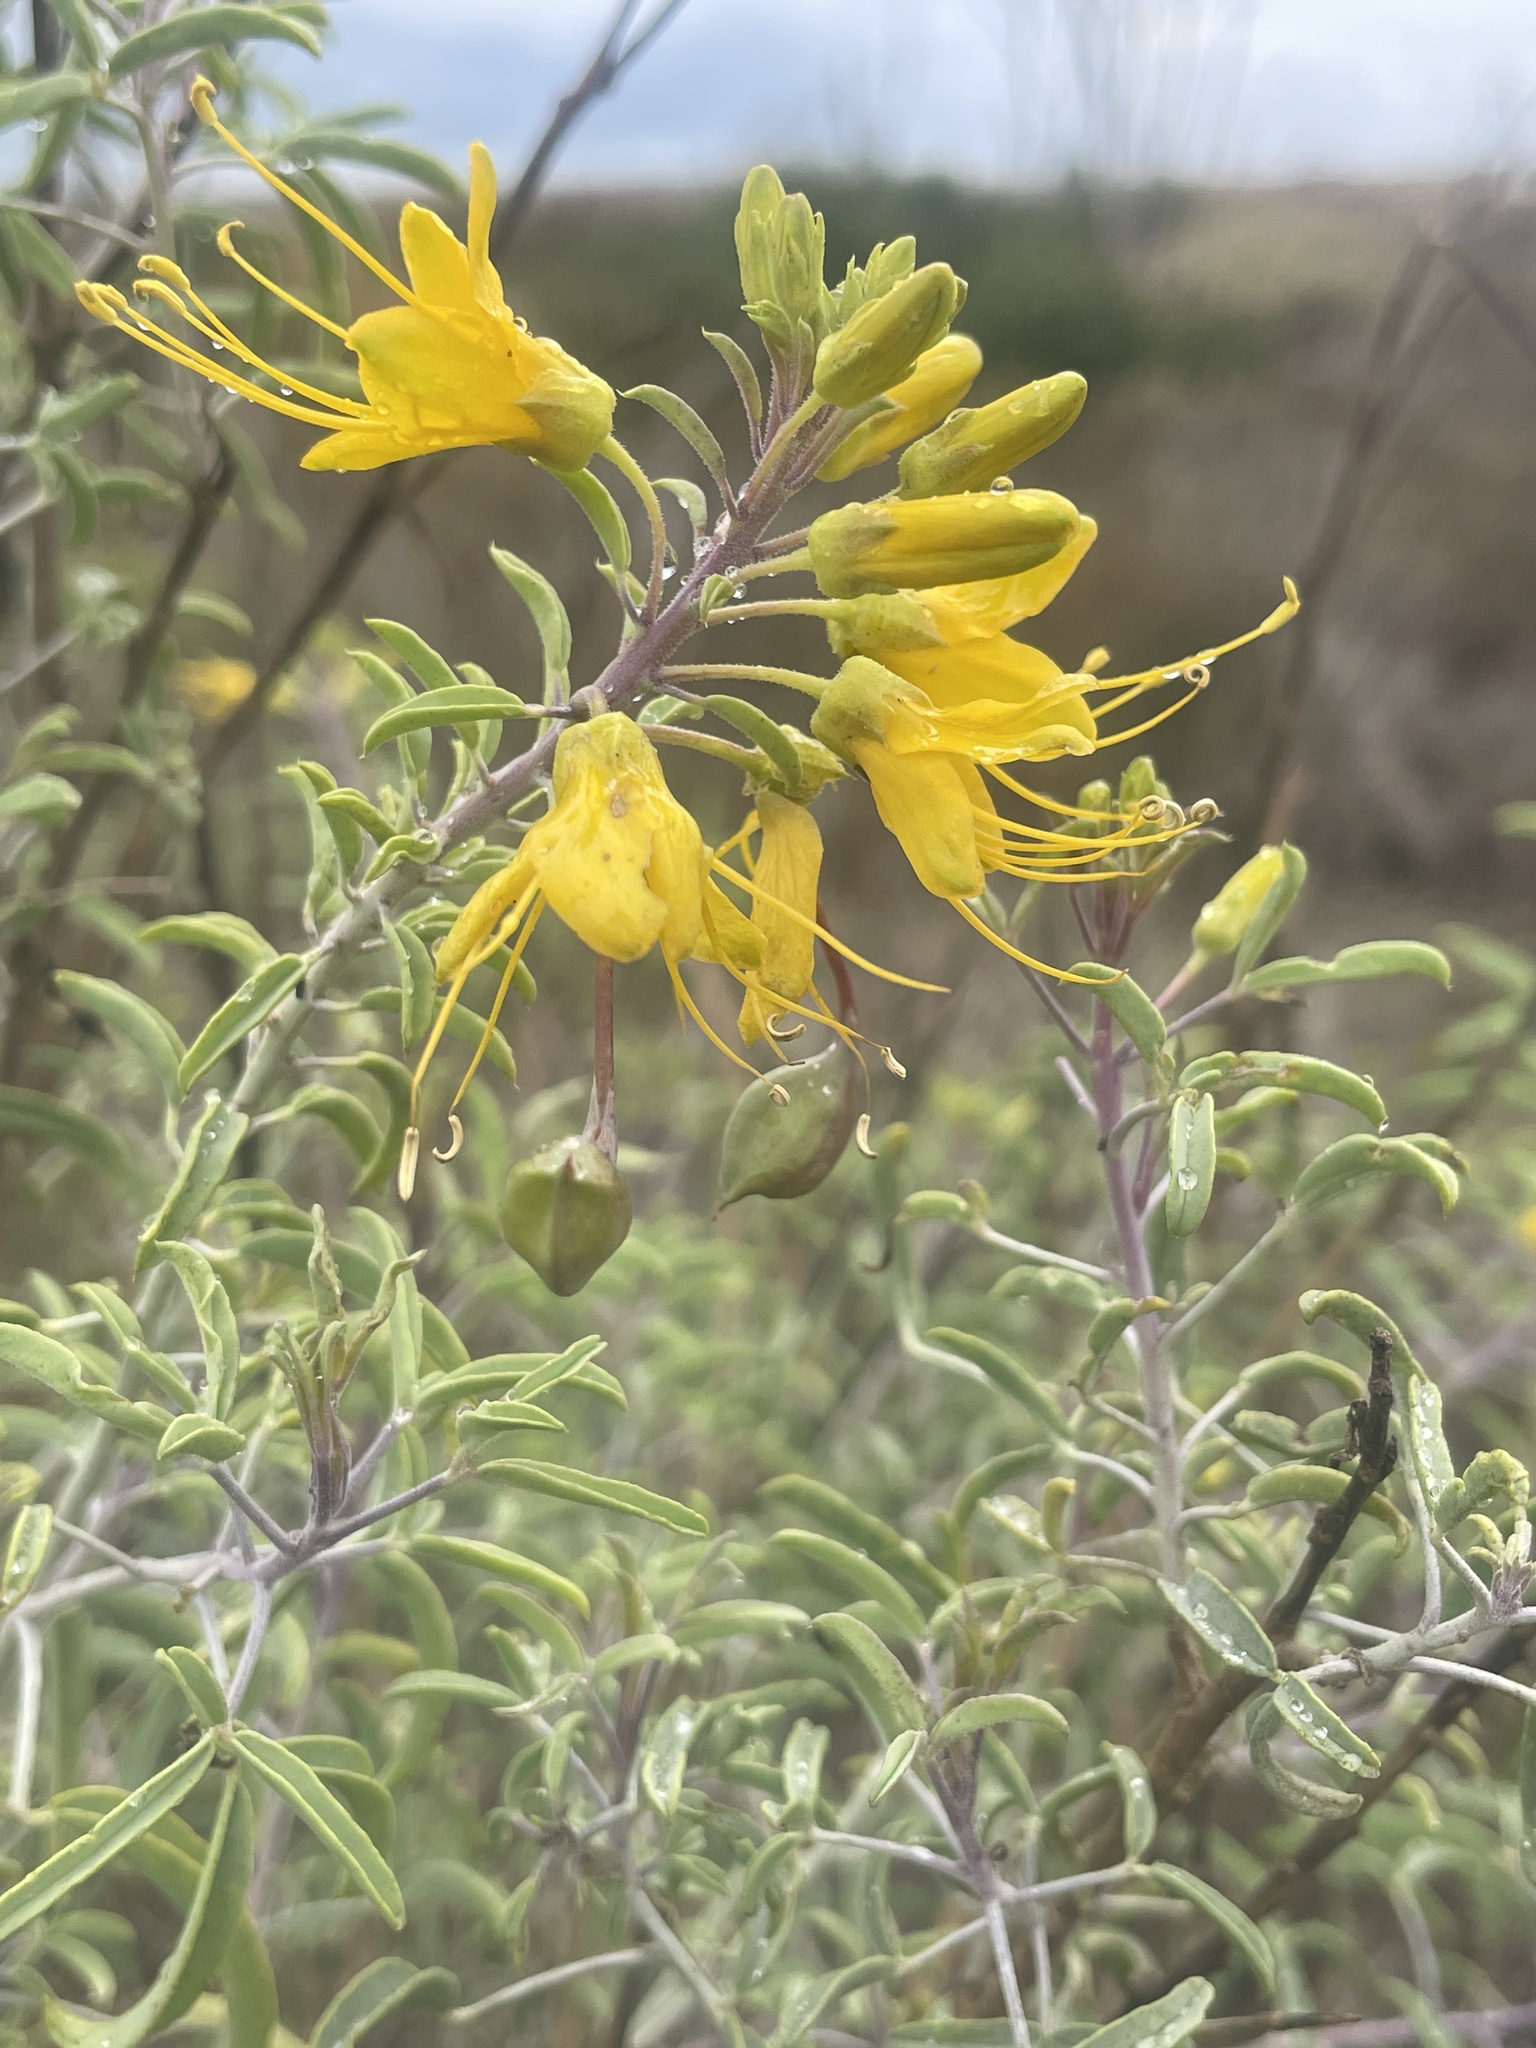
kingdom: Plantae
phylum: Tracheophyta
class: Magnoliopsida
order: Brassicales
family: Cleomaceae
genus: Cleomella
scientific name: Cleomella arborea
